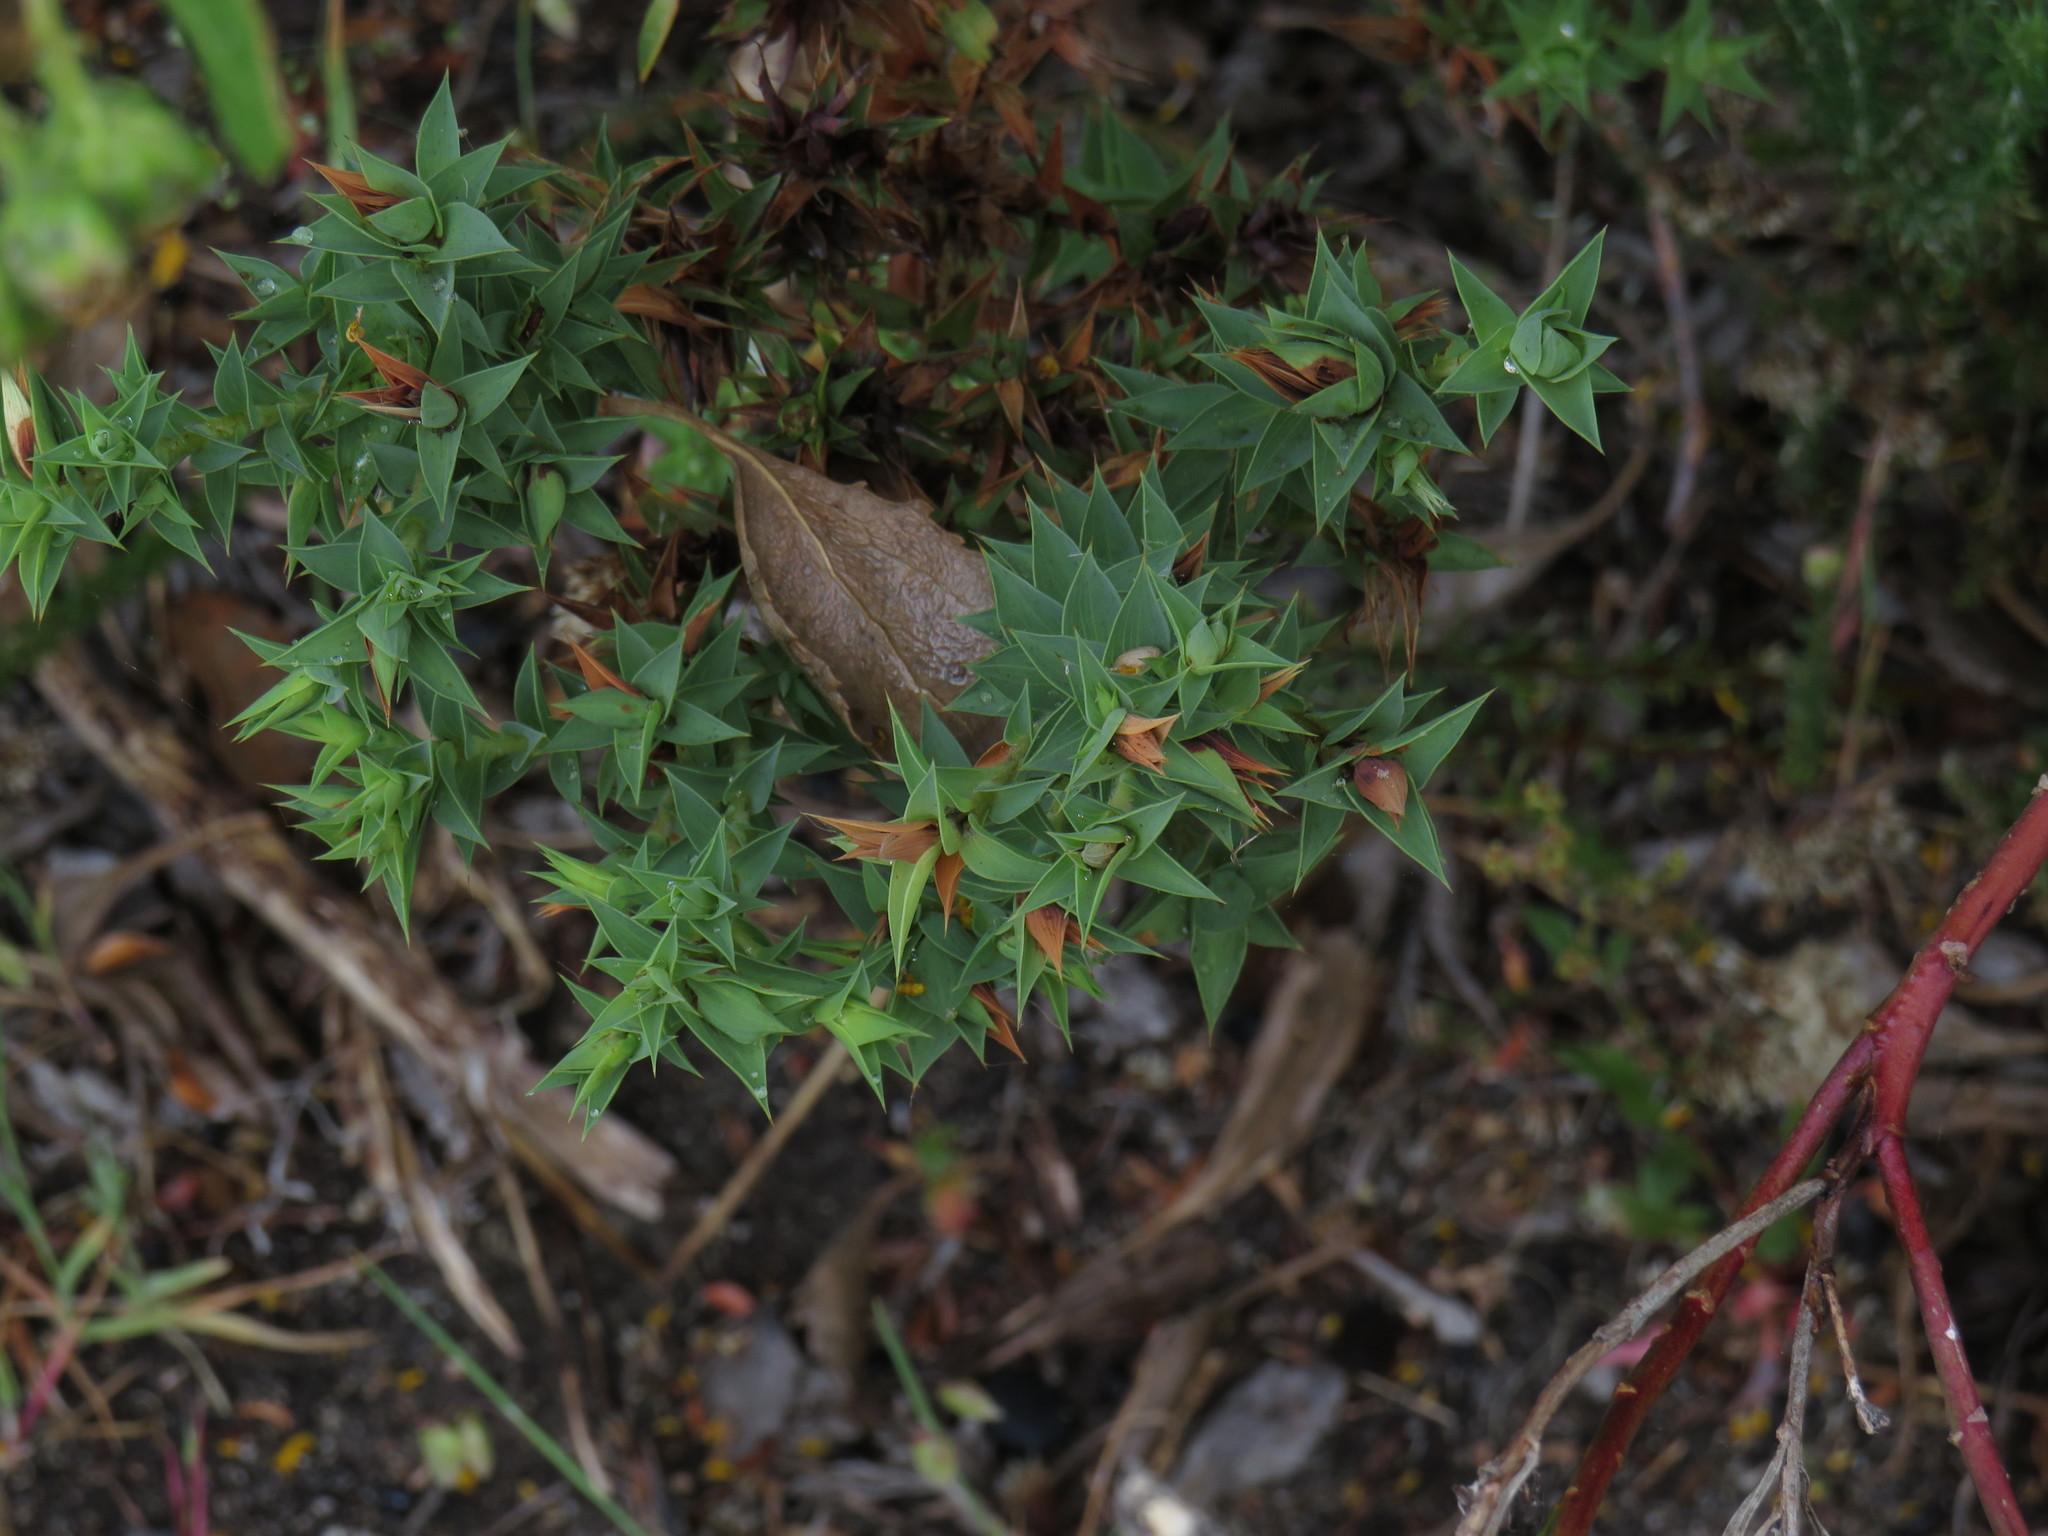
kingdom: Plantae
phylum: Tracheophyta
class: Magnoliopsida
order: Fabales
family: Fabaceae
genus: Aspalathus
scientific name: Aspalathus cordata
